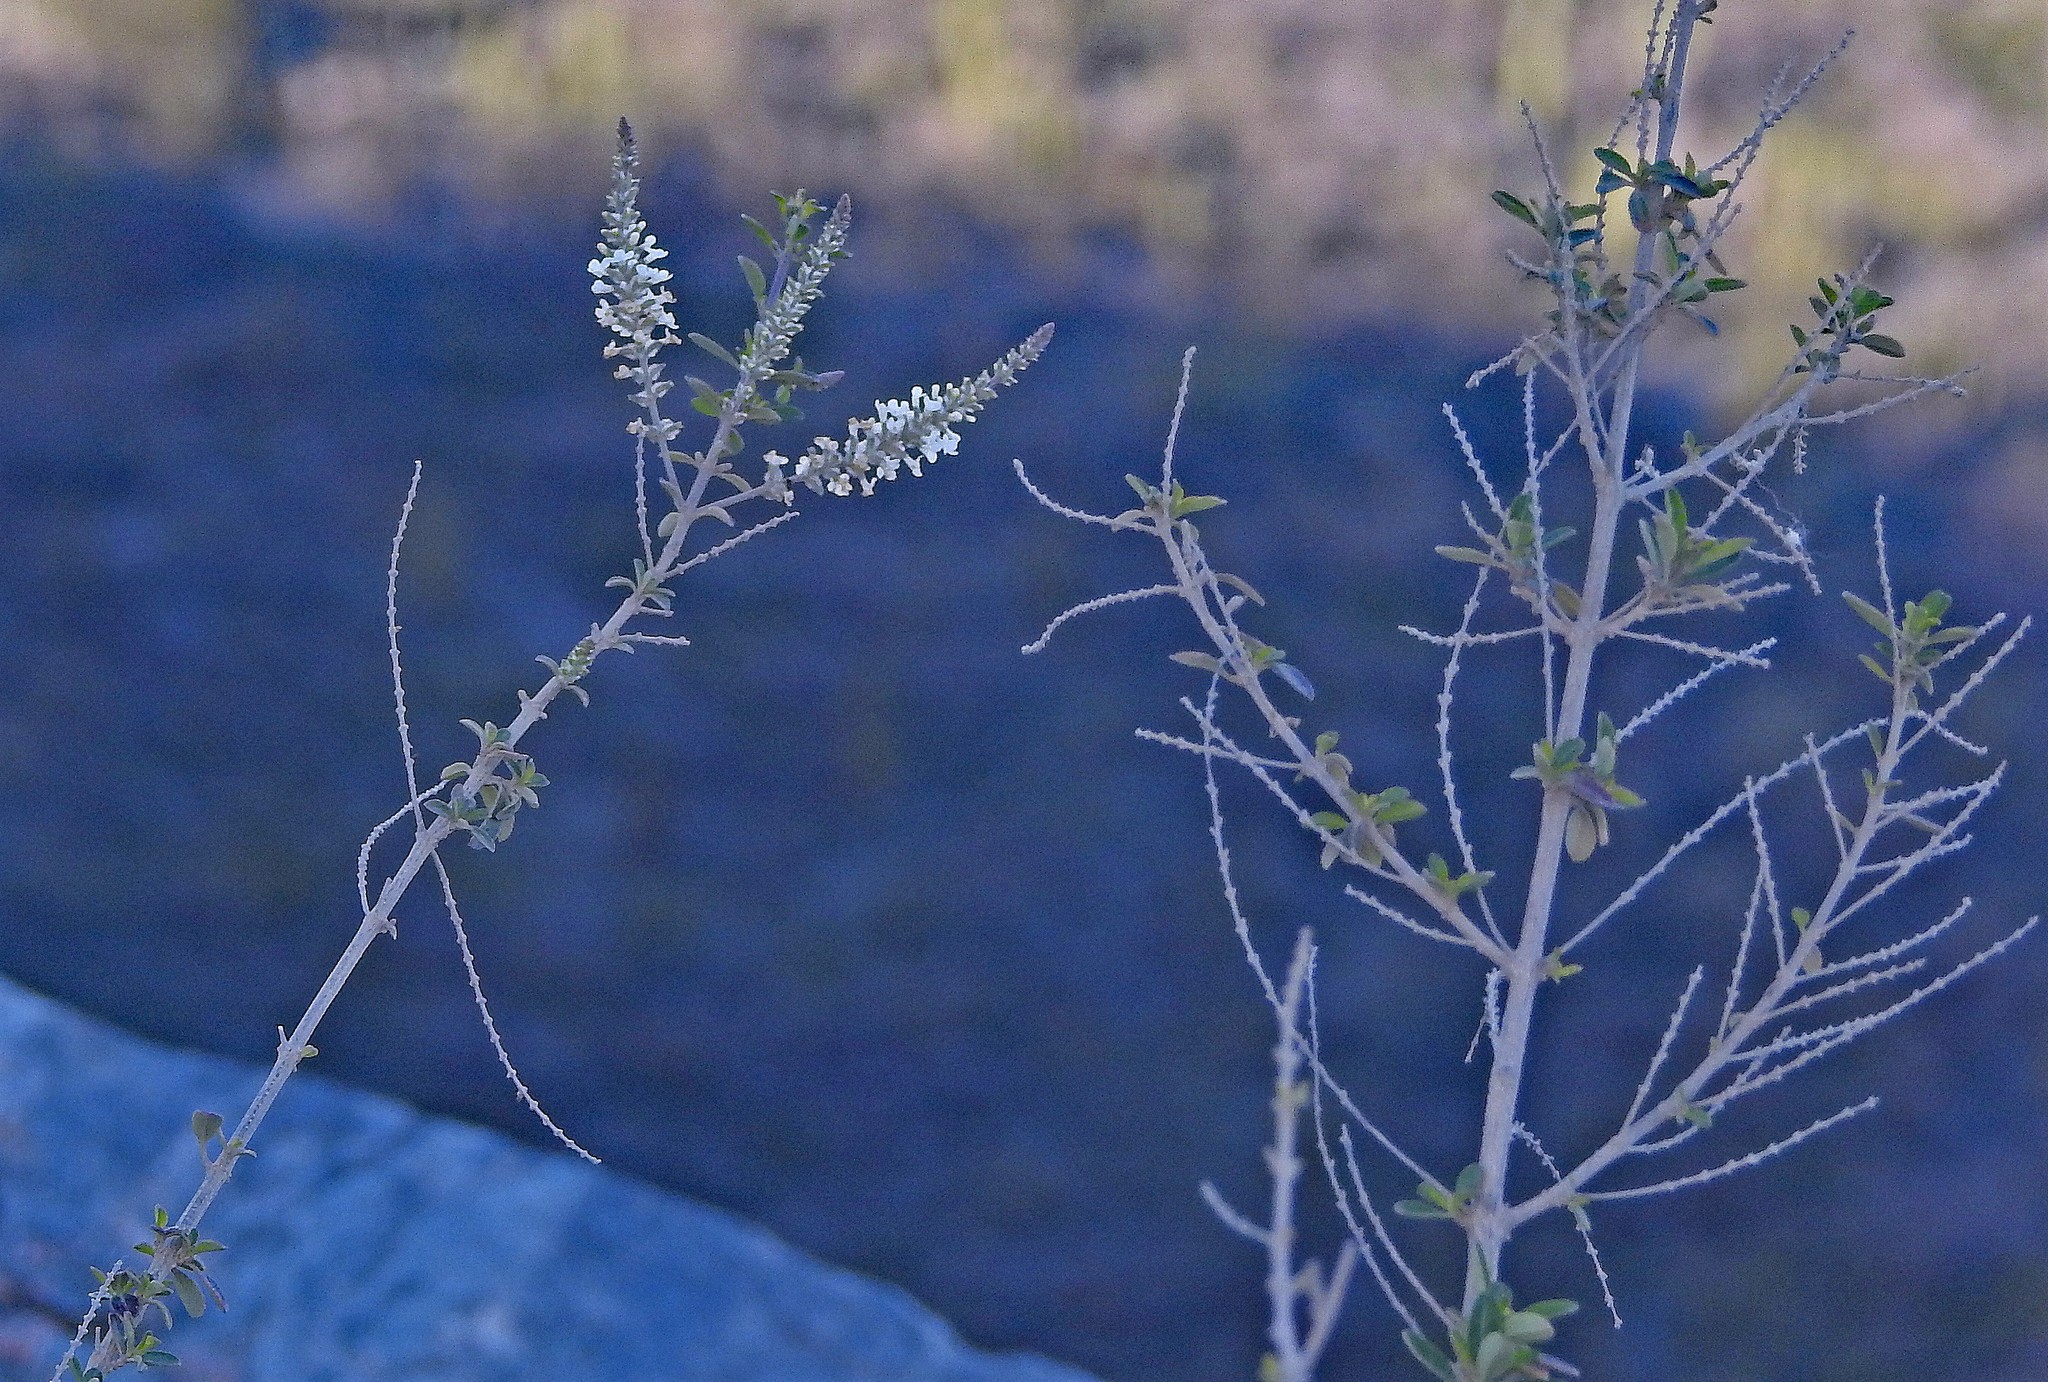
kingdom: Plantae
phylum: Tracheophyta
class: Magnoliopsida
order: Lamiales
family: Verbenaceae
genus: Aloysia
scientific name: Aloysia gratissima
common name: Common bee-brush
